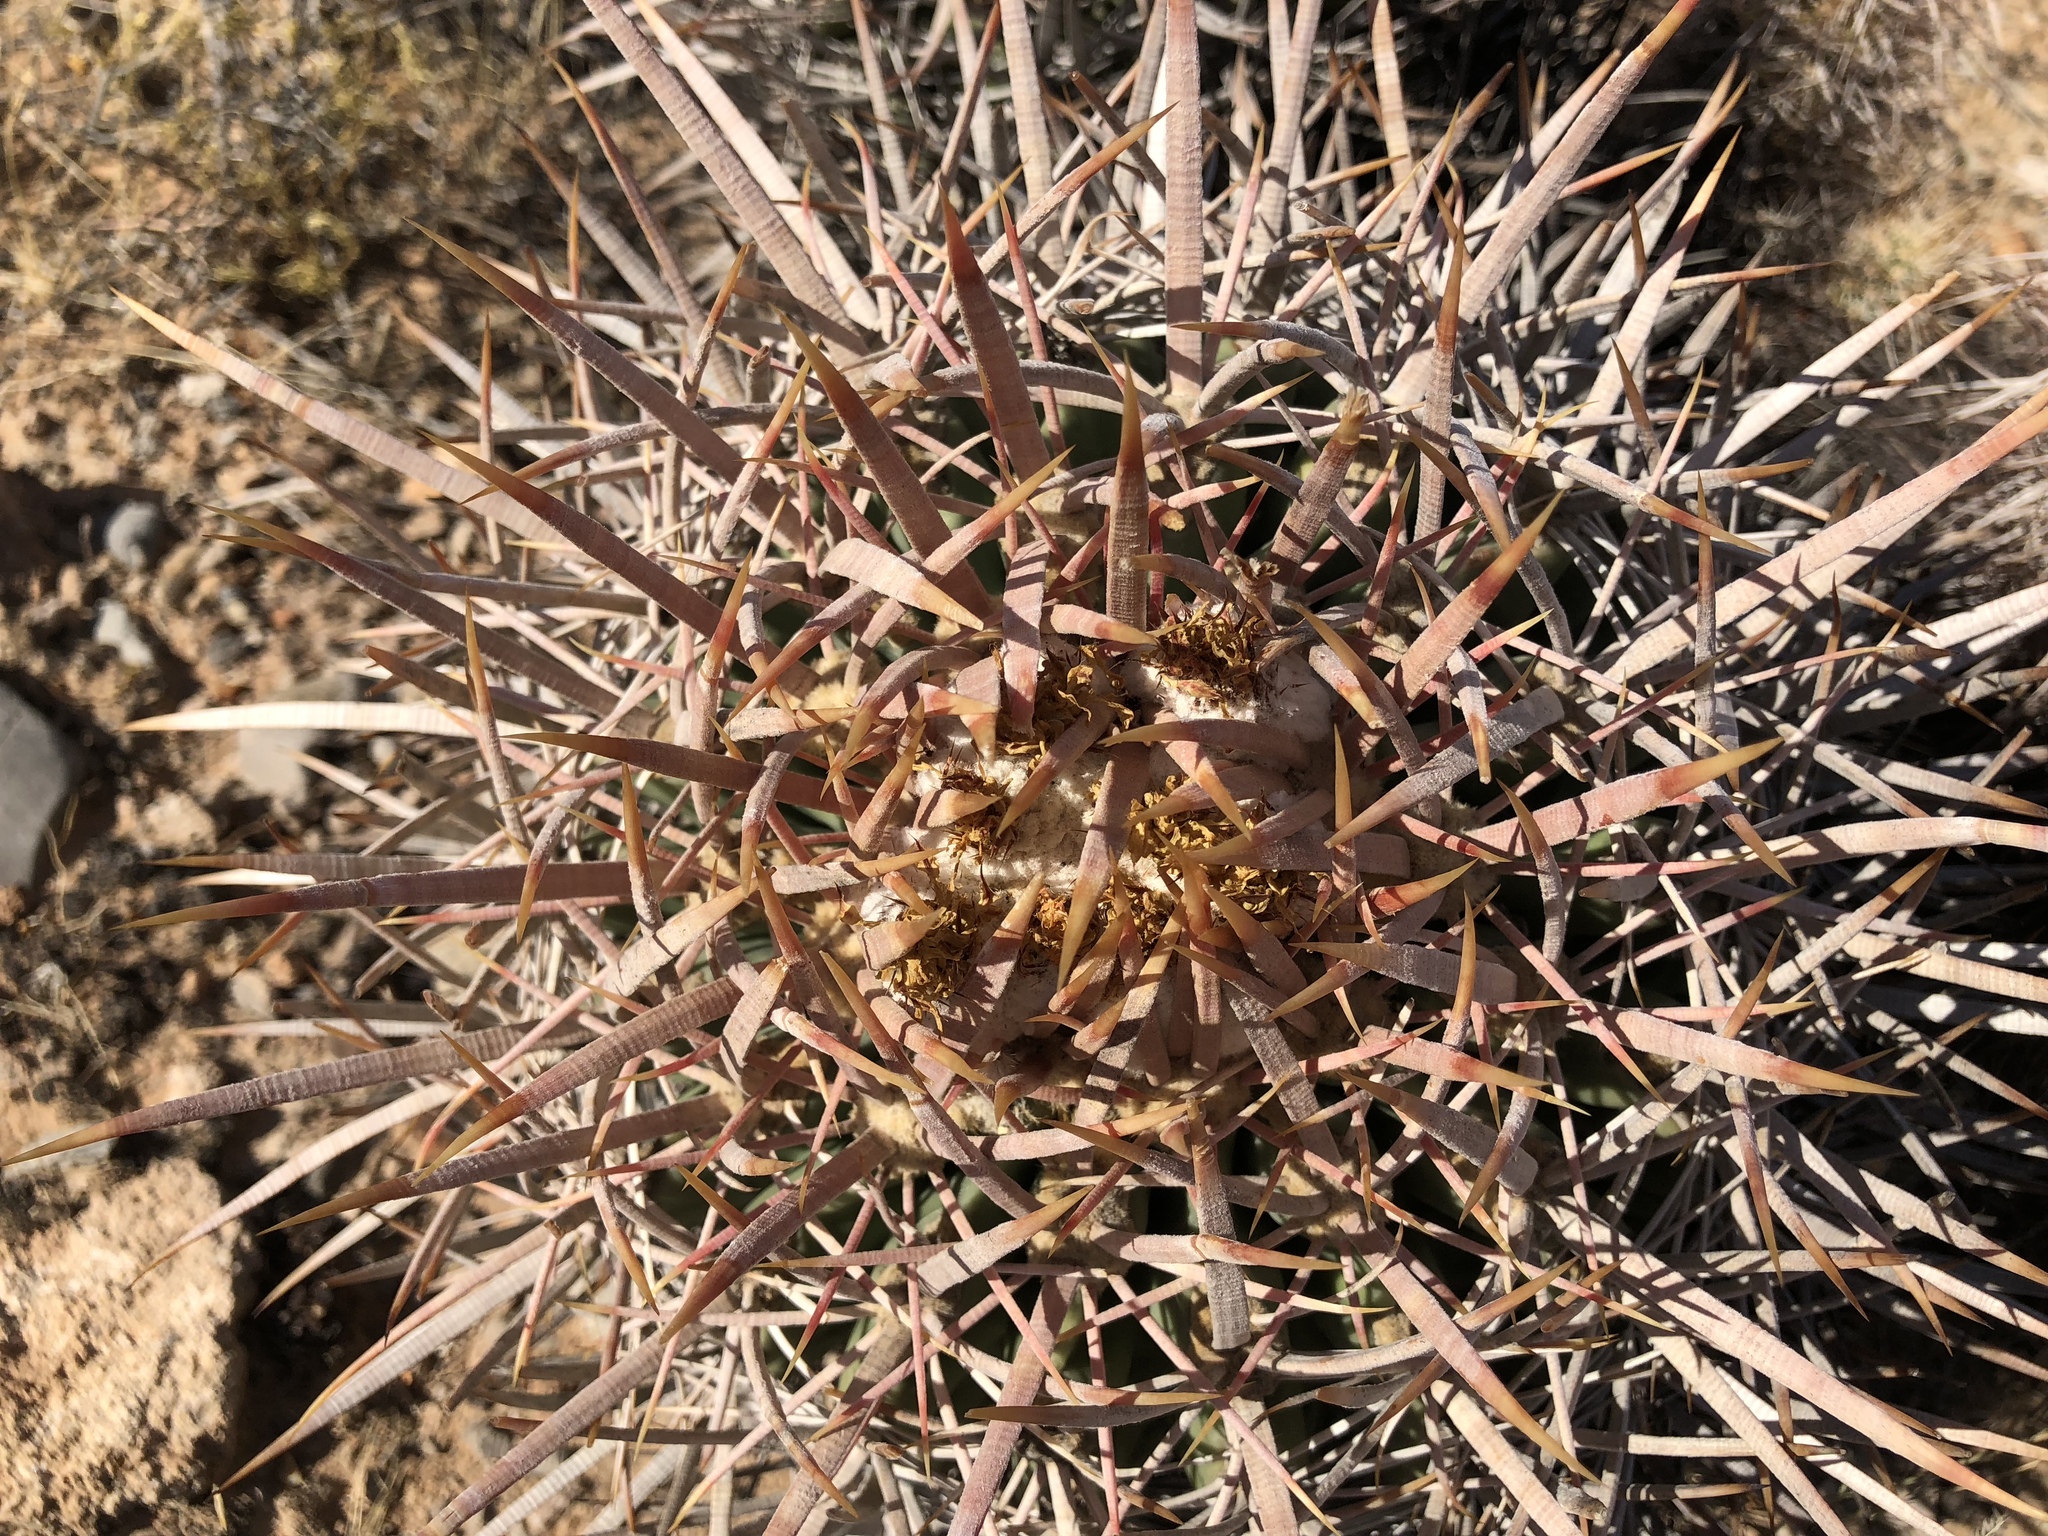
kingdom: Plantae
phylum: Tracheophyta
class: Magnoliopsida
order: Caryophyllales
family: Cactaceae
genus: Echinocactus
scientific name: Echinocactus polycephalus
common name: Cottontop cactus
